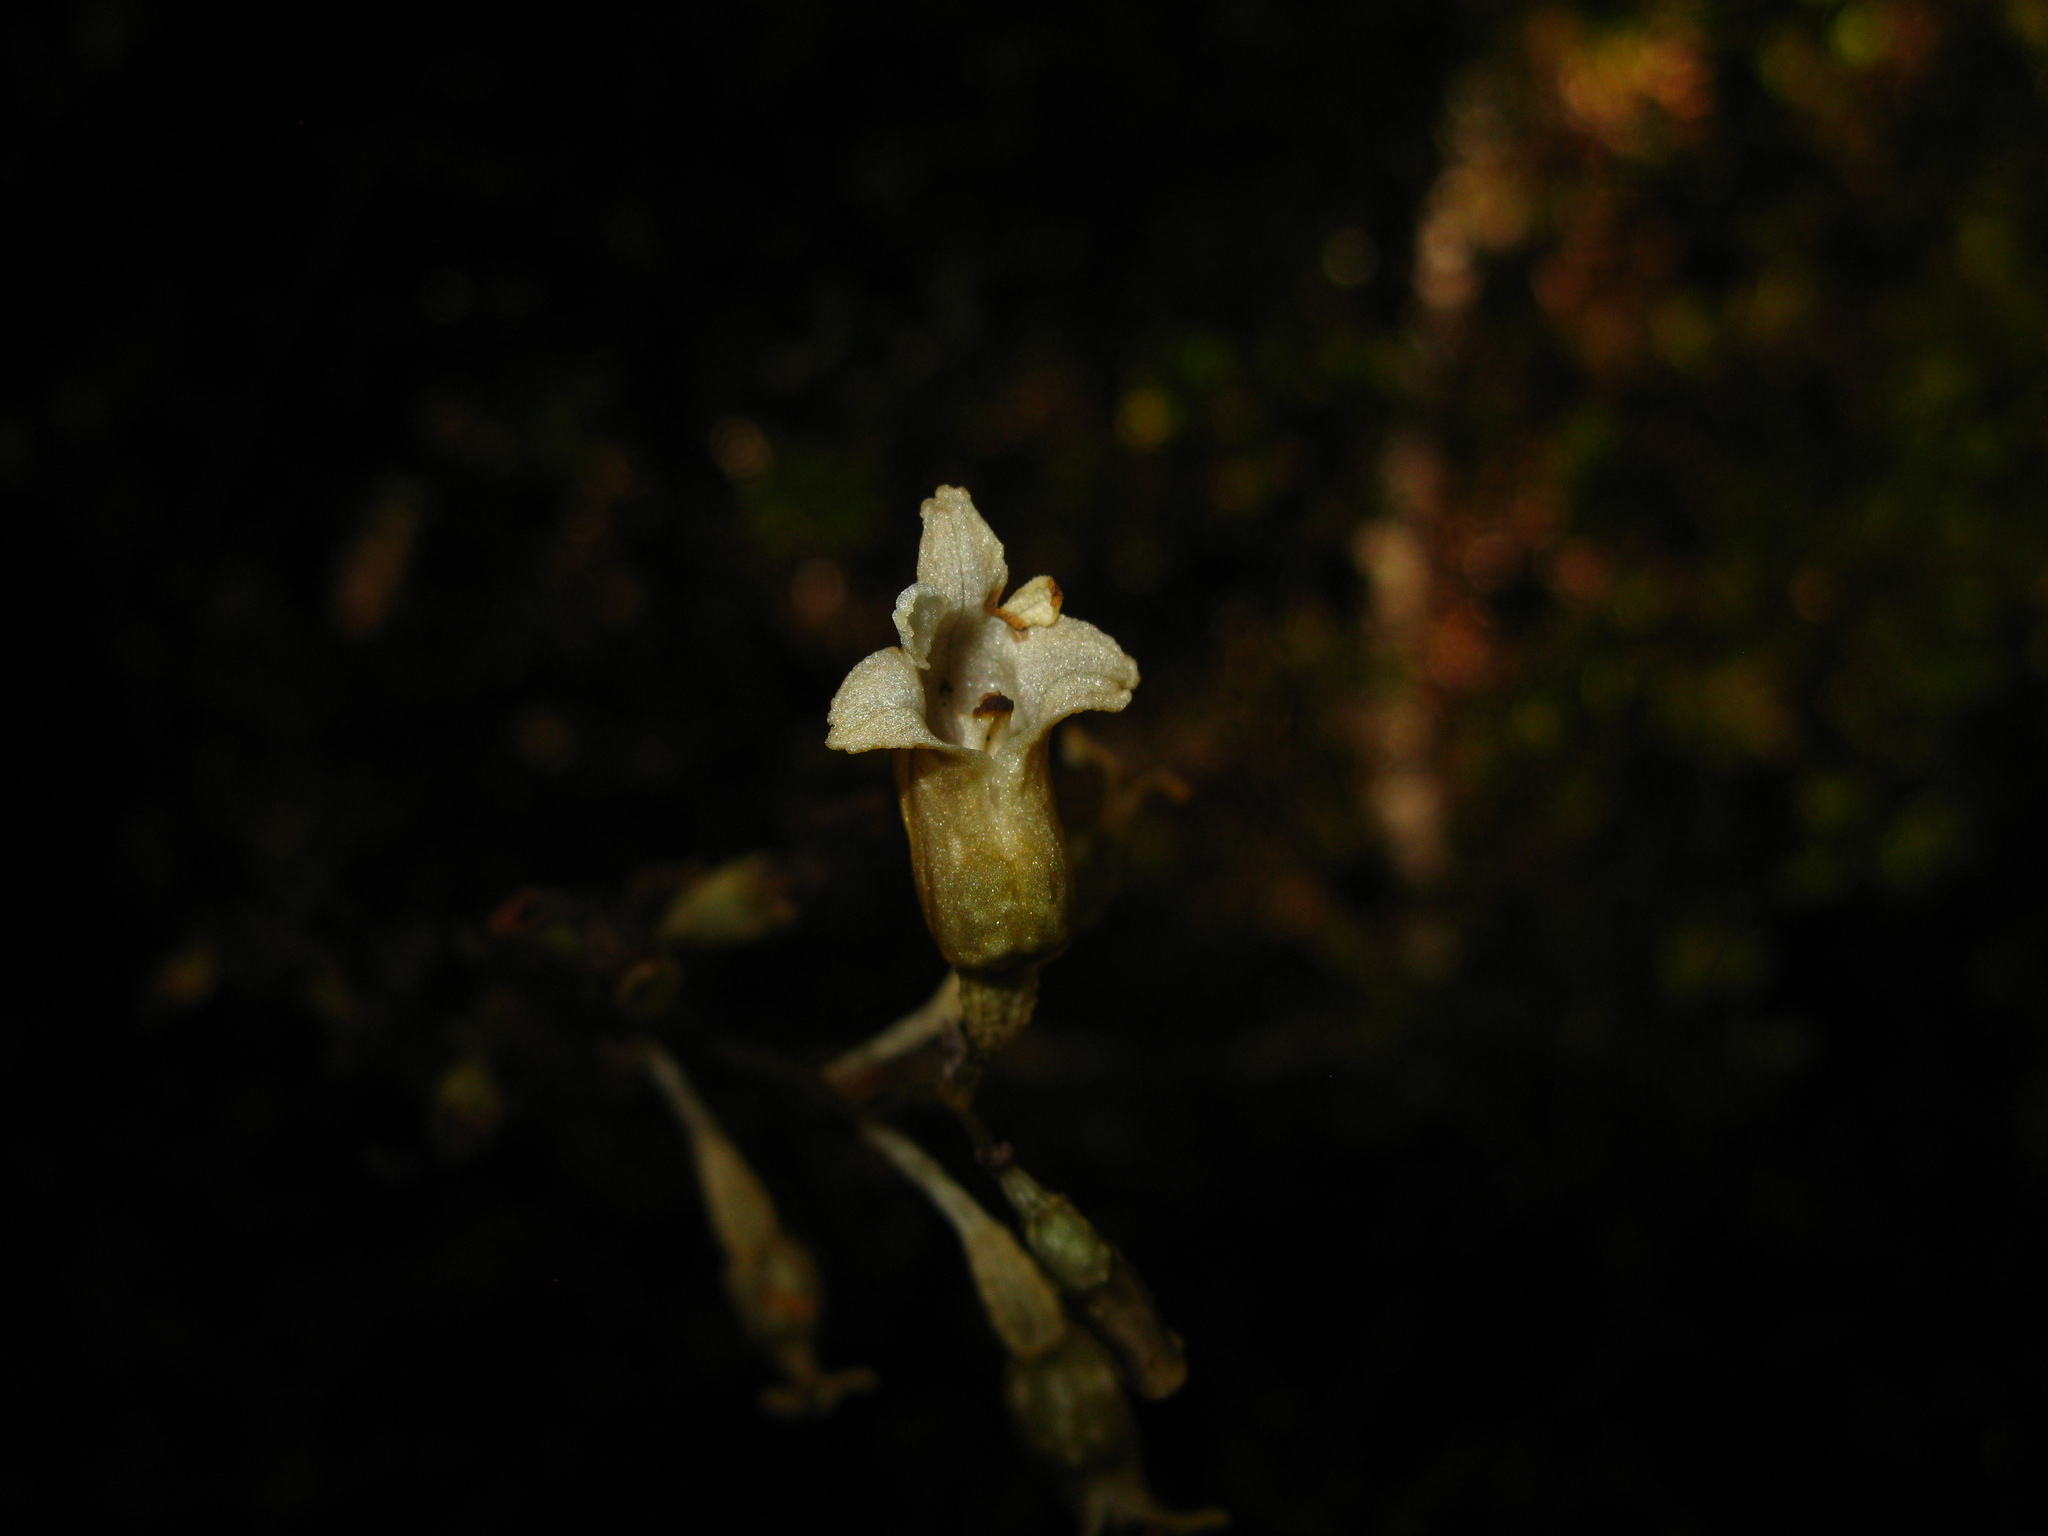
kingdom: Plantae
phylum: Tracheophyta
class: Liliopsida
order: Asparagales
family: Orchidaceae
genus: Gastrodia
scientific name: Gastrodia cunninghamii
